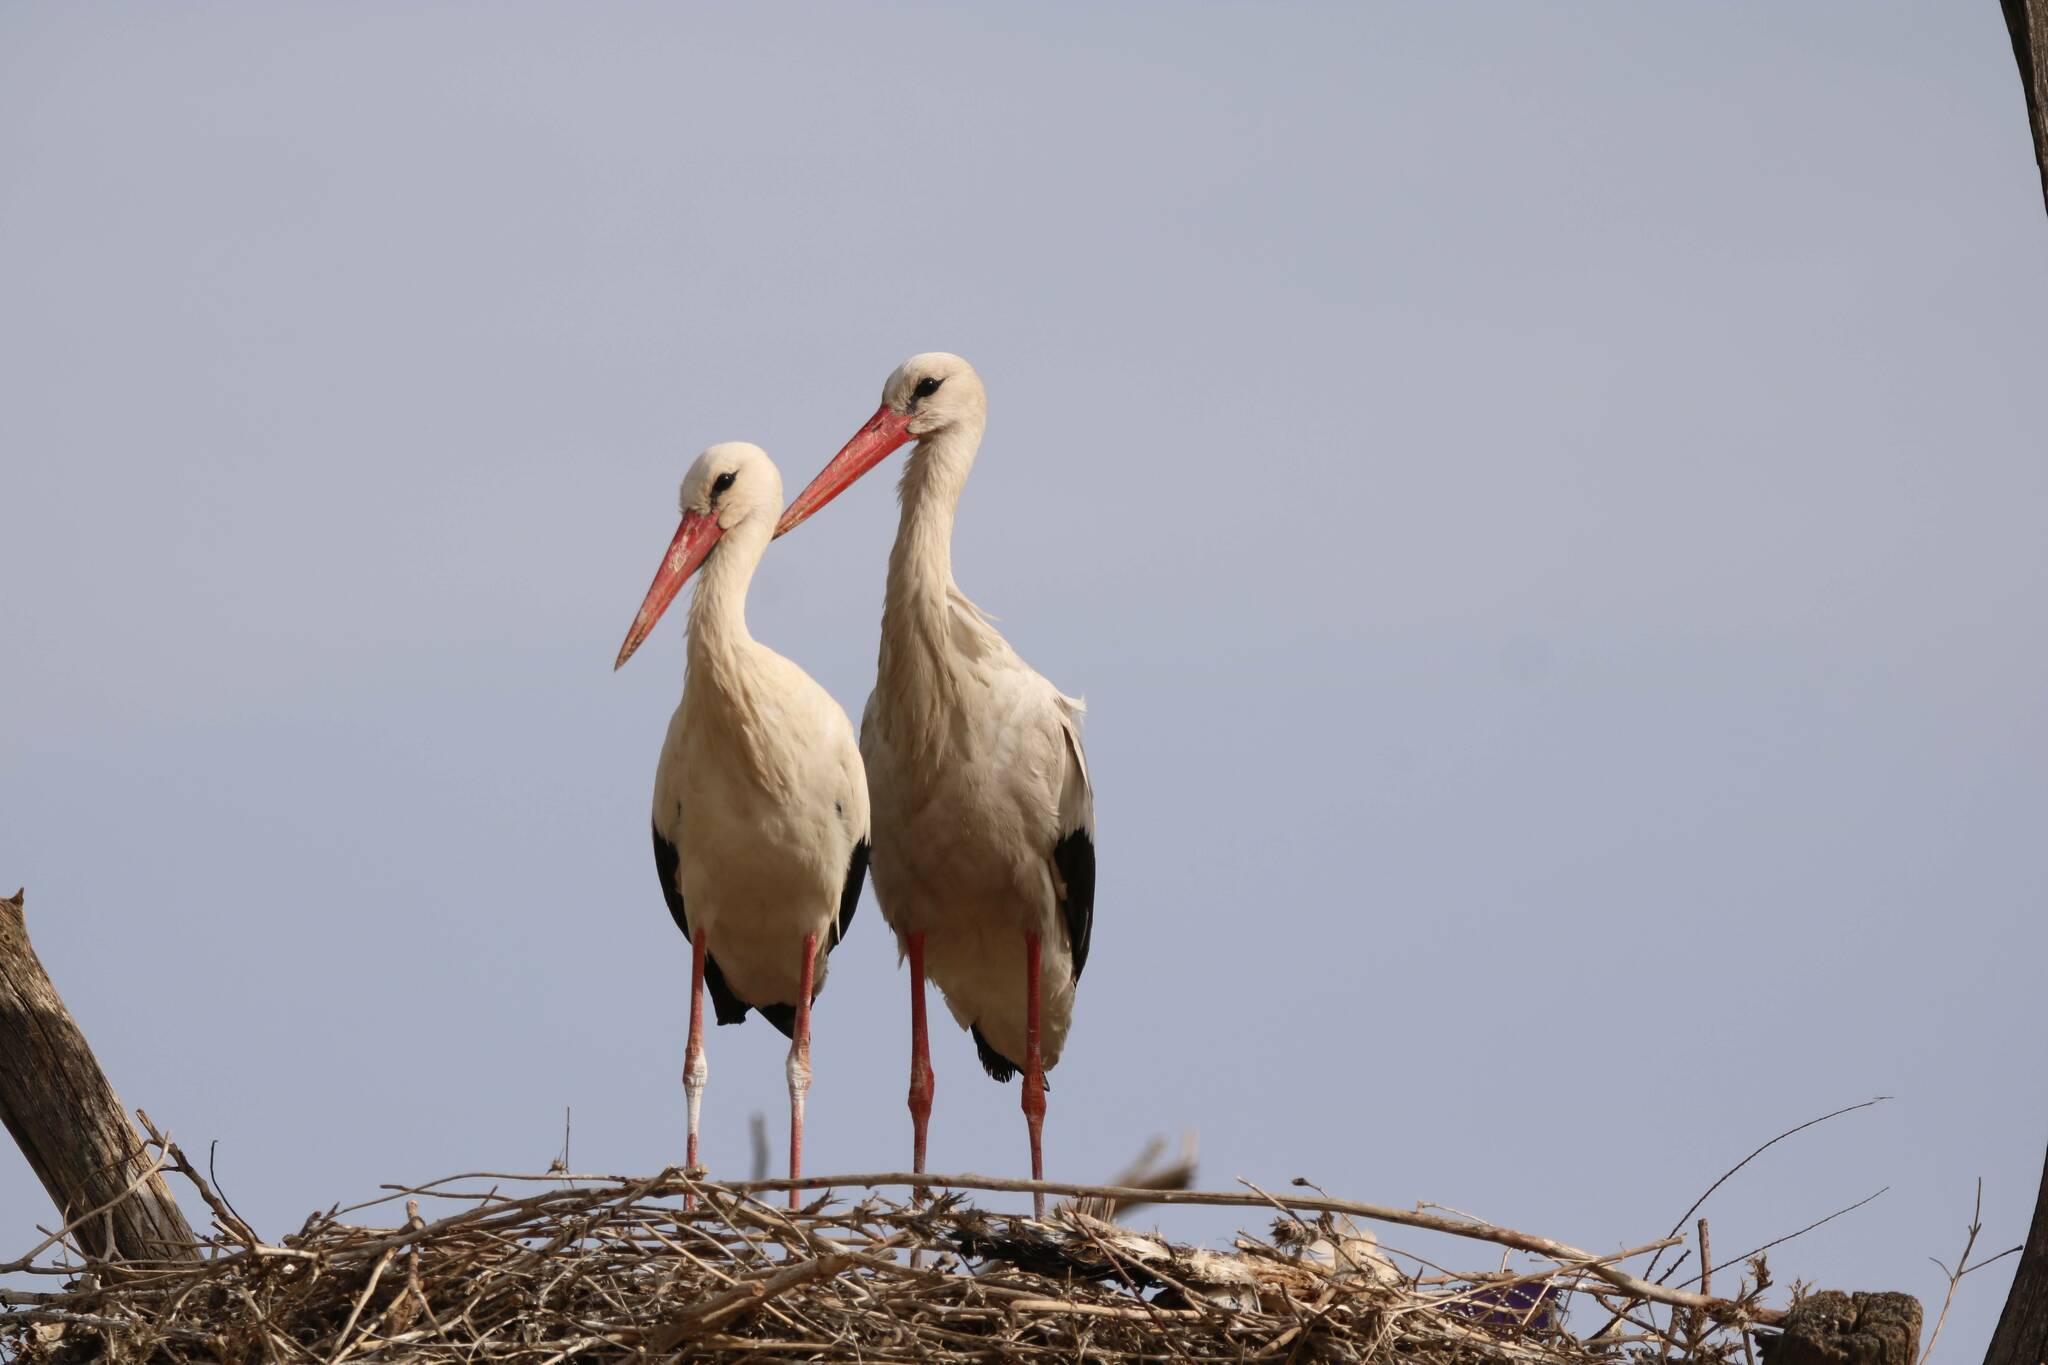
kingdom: Animalia
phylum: Chordata
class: Aves
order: Ciconiiformes
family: Ciconiidae
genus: Ciconia
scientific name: Ciconia ciconia
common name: White stork
